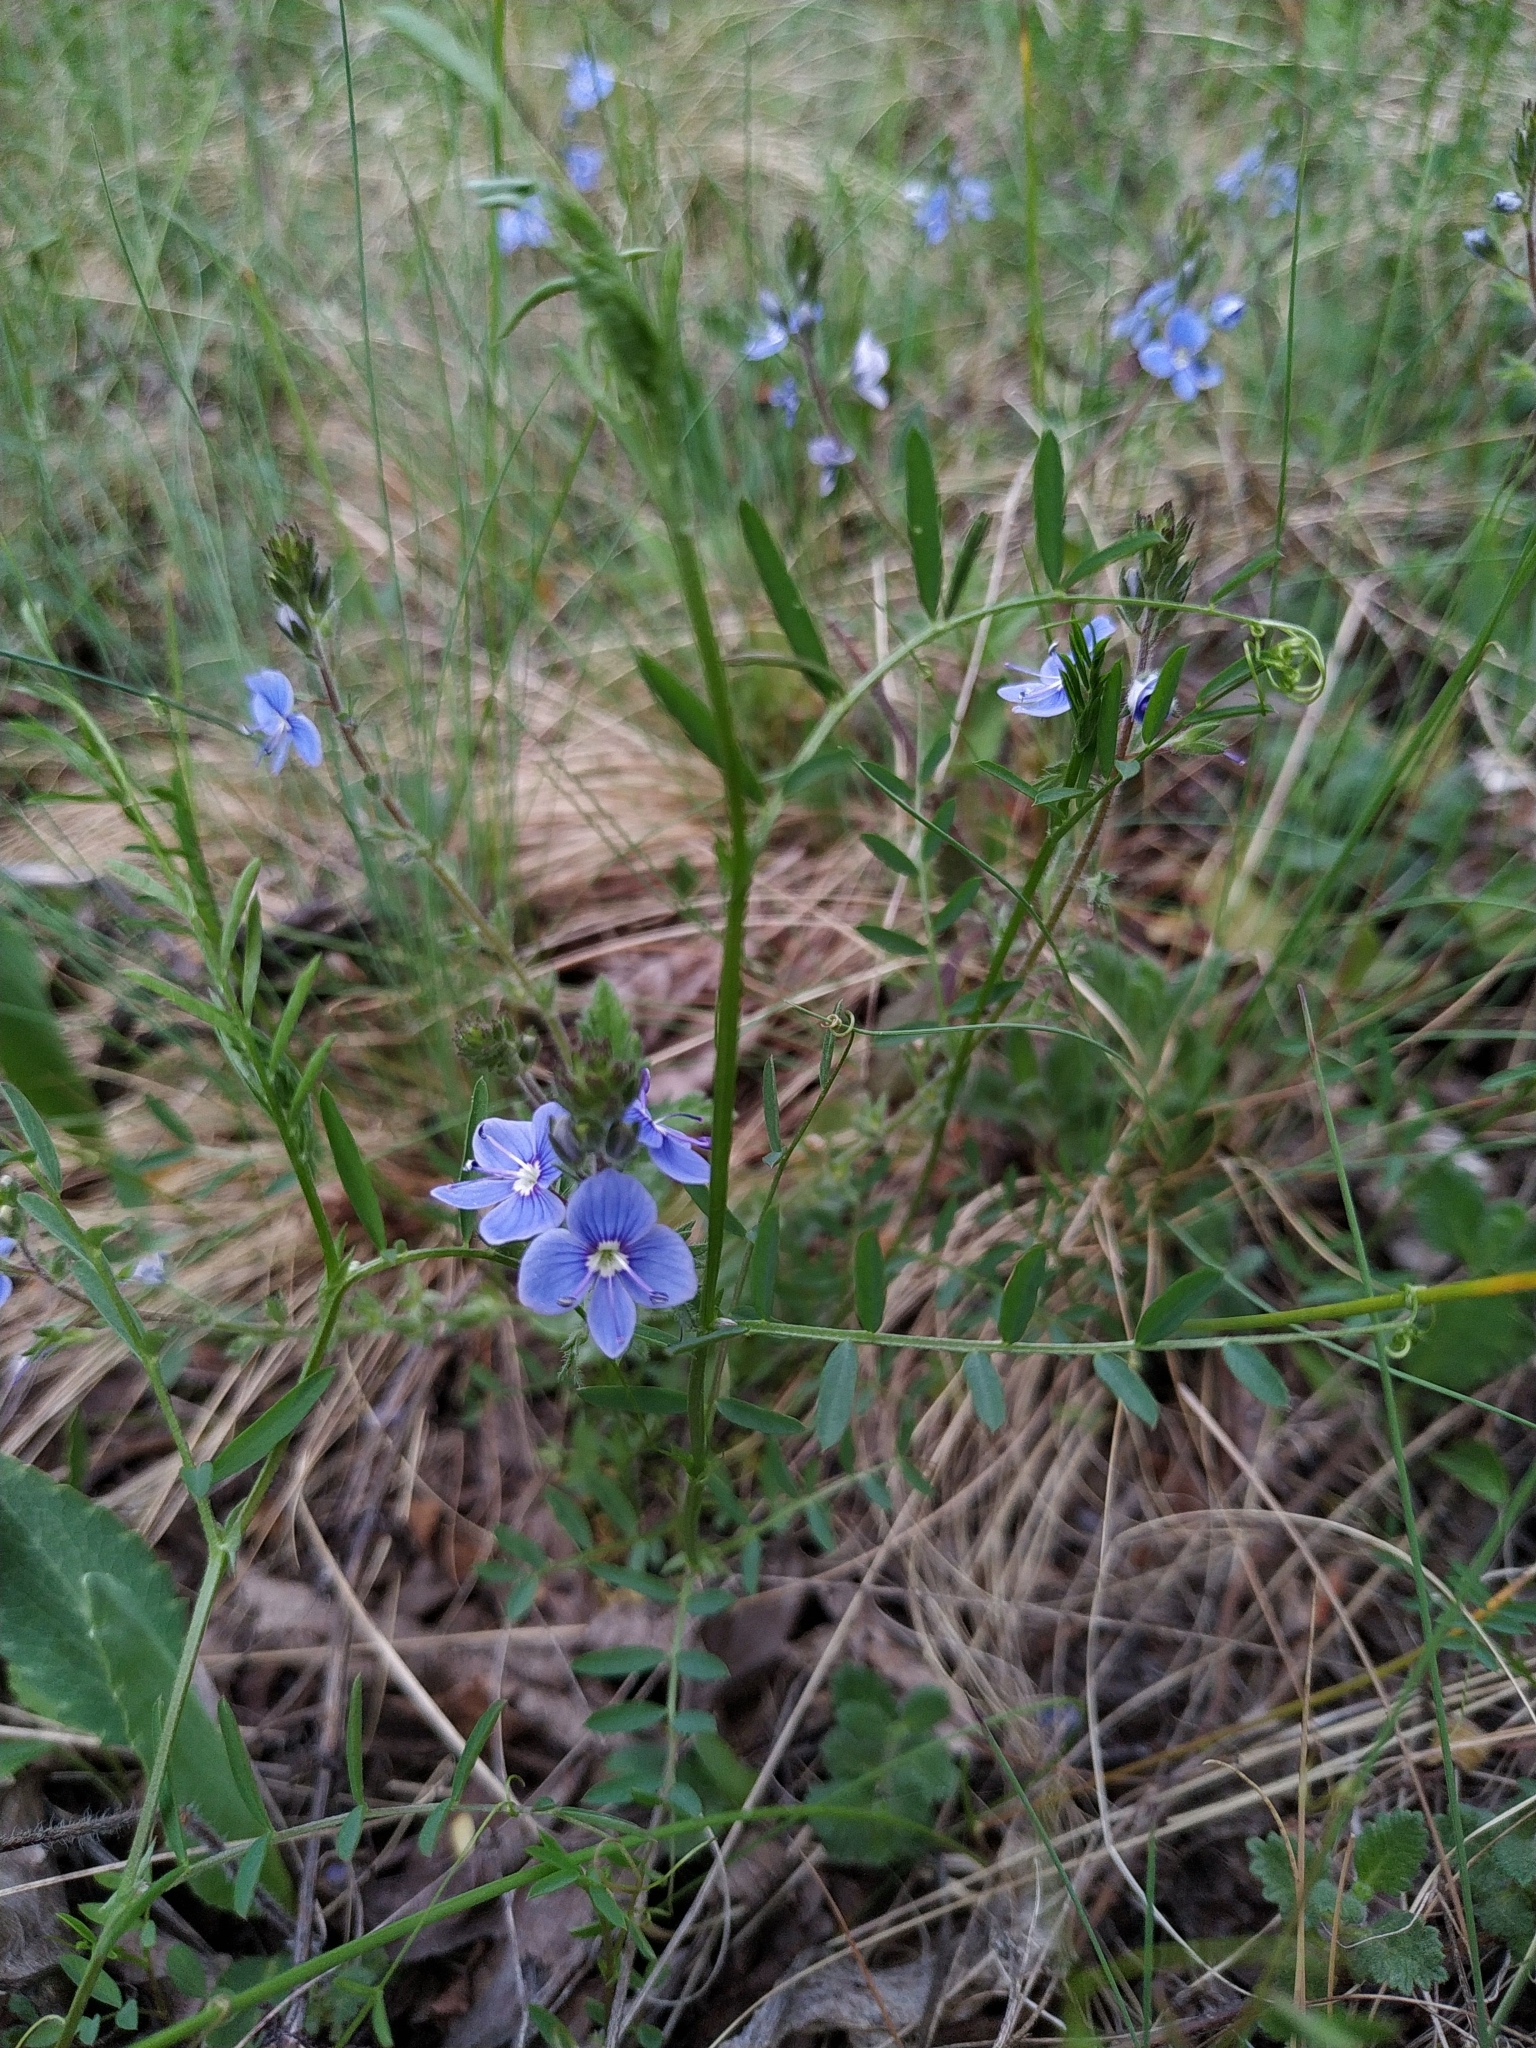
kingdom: Plantae
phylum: Tracheophyta
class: Magnoliopsida
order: Lamiales
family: Plantaginaceae
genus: Veronica
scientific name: Veronica chamaedrys
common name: Germander speedwell
